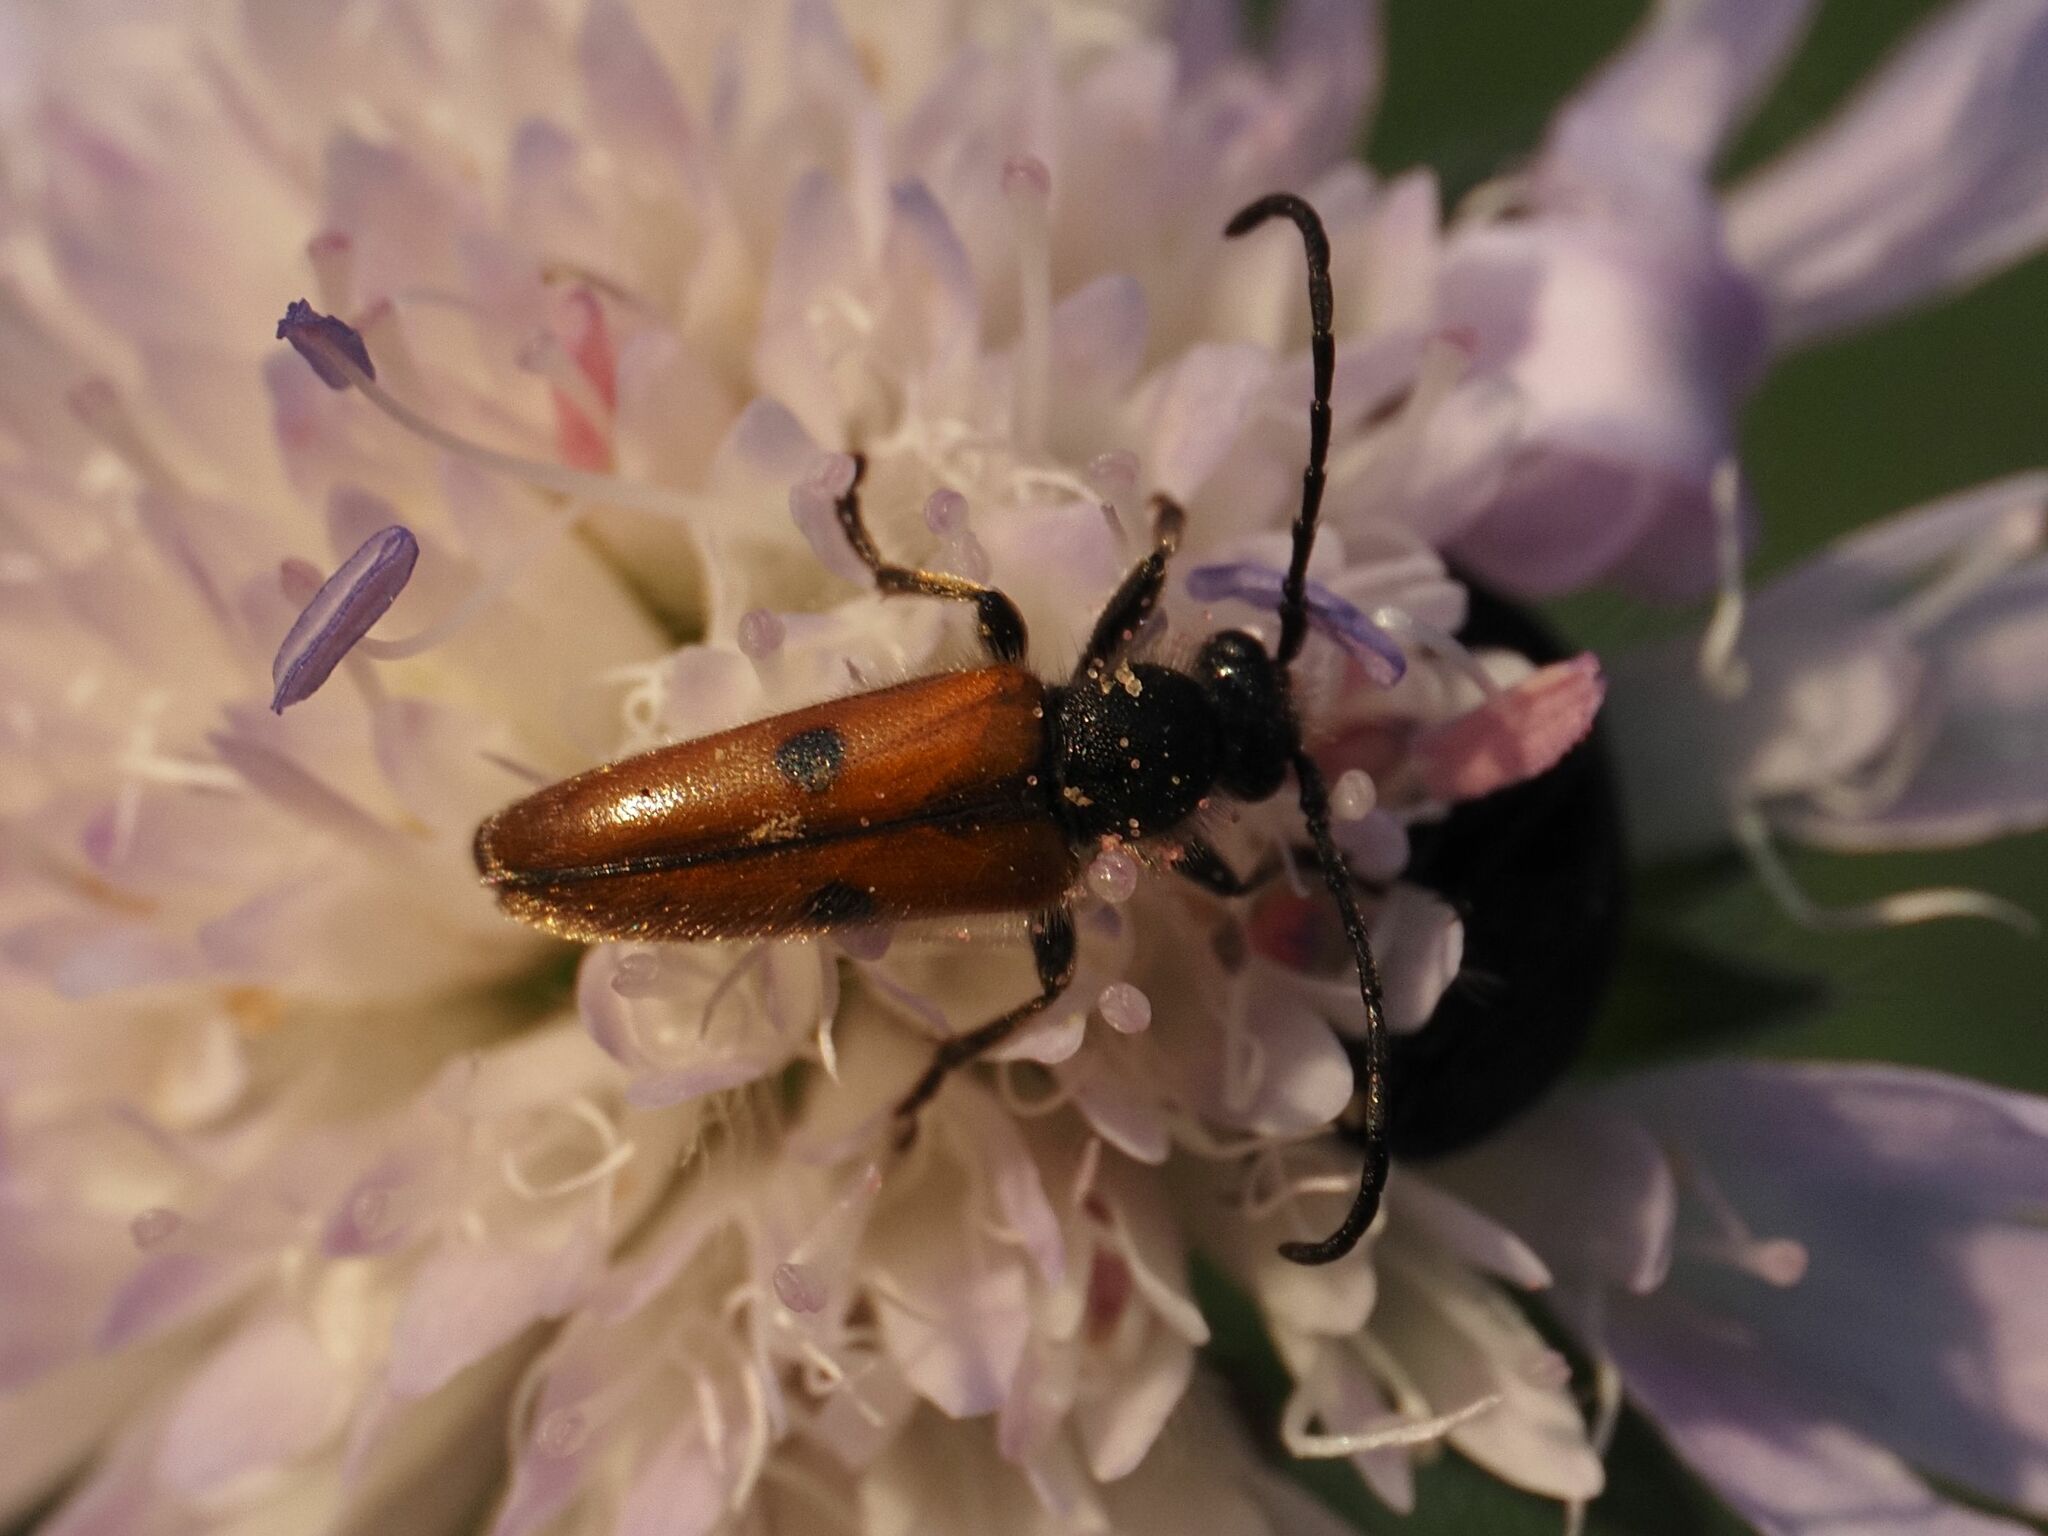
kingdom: Animalia
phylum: Arthropoda
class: Insecta
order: Coleoptera
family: Cerambycidae
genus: Vadonia
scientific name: Vadonia unipunctata
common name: Long-horned beetle
